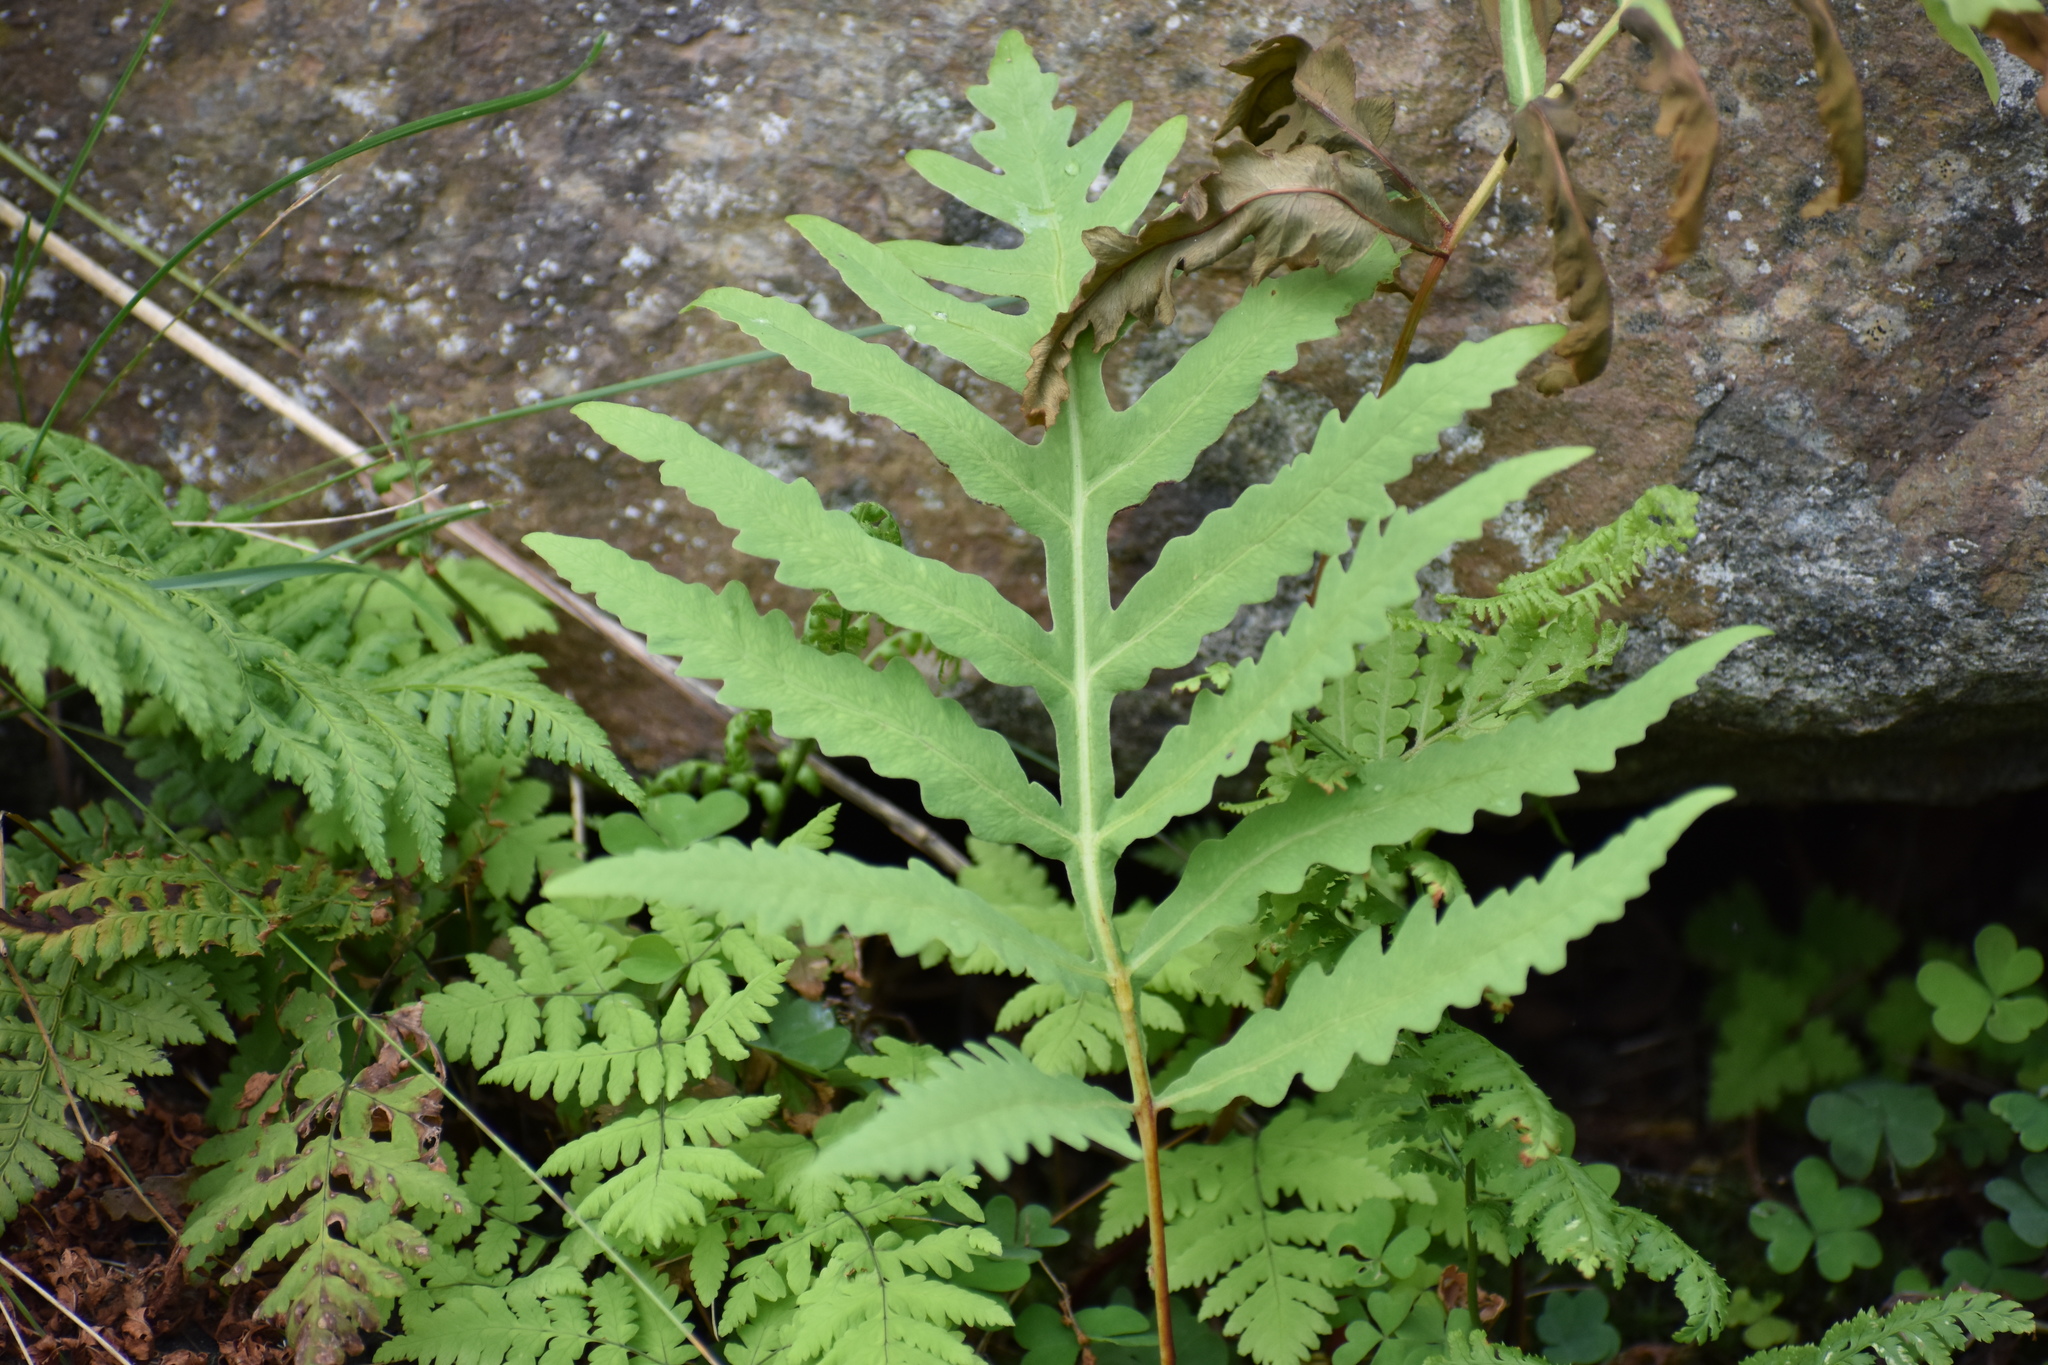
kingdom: Plantae
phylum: Tracheophyta
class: Polypodiopsida
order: Polypodiales
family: Onocleaceae
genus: Onoclea
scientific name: Onoclea sensibilis
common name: Sensitive fern
